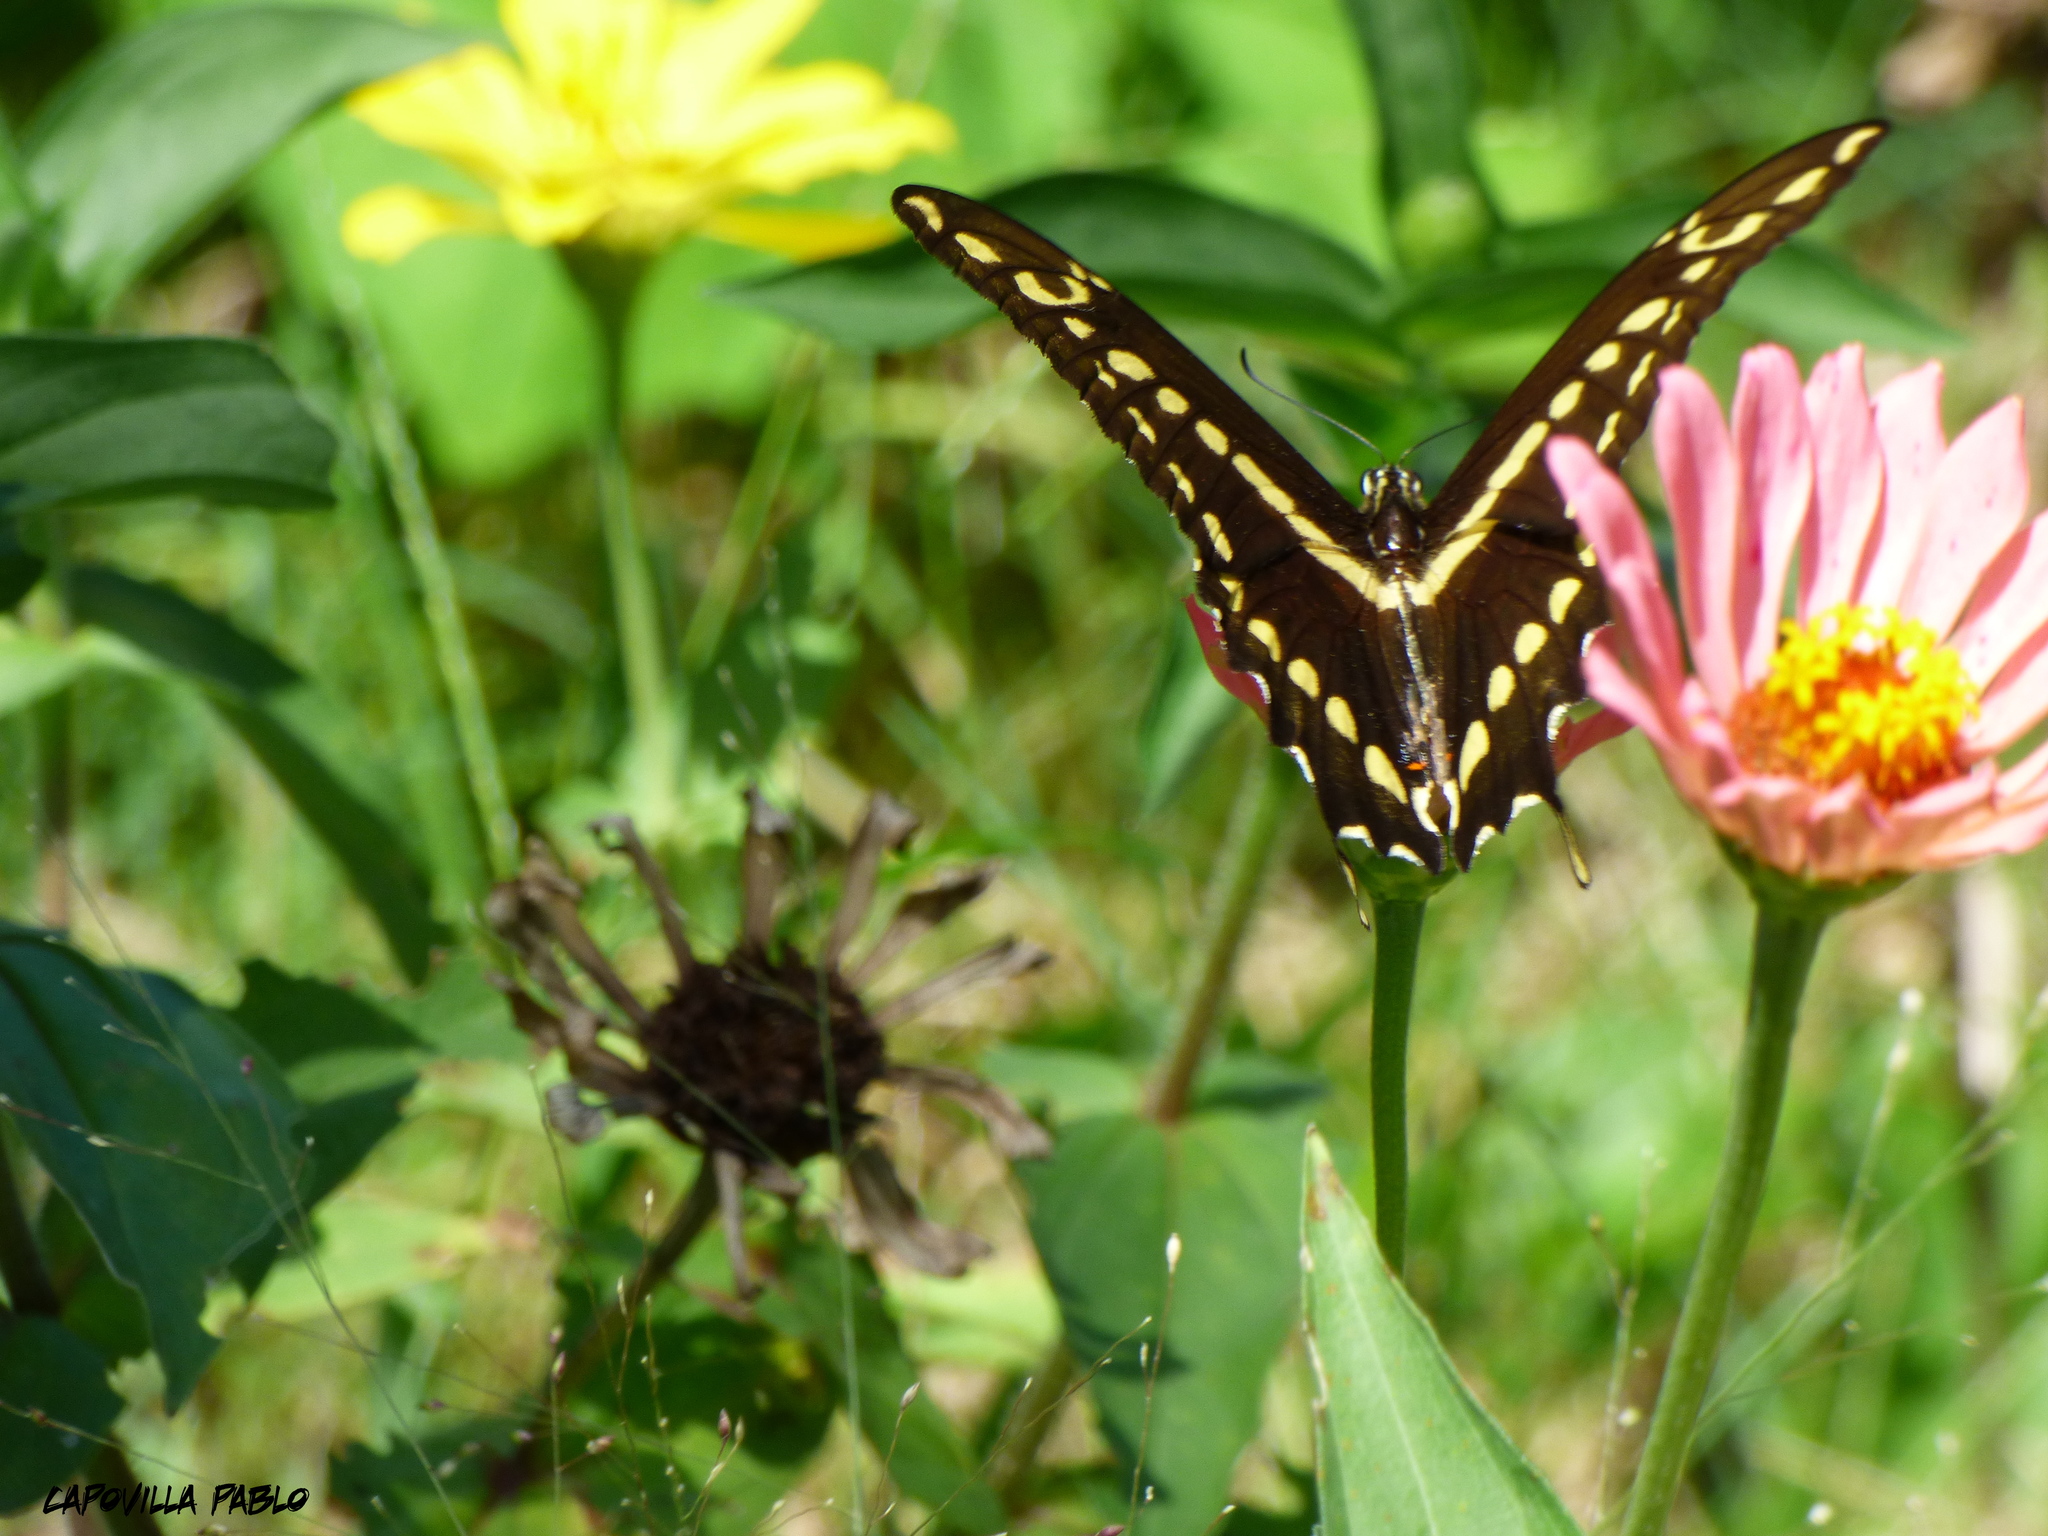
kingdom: Animalia
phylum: Arthropoda
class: Insecta
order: Lepidoptera
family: Papilionidae
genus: Papilio
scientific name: Papilio thoas
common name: King swallowtail
